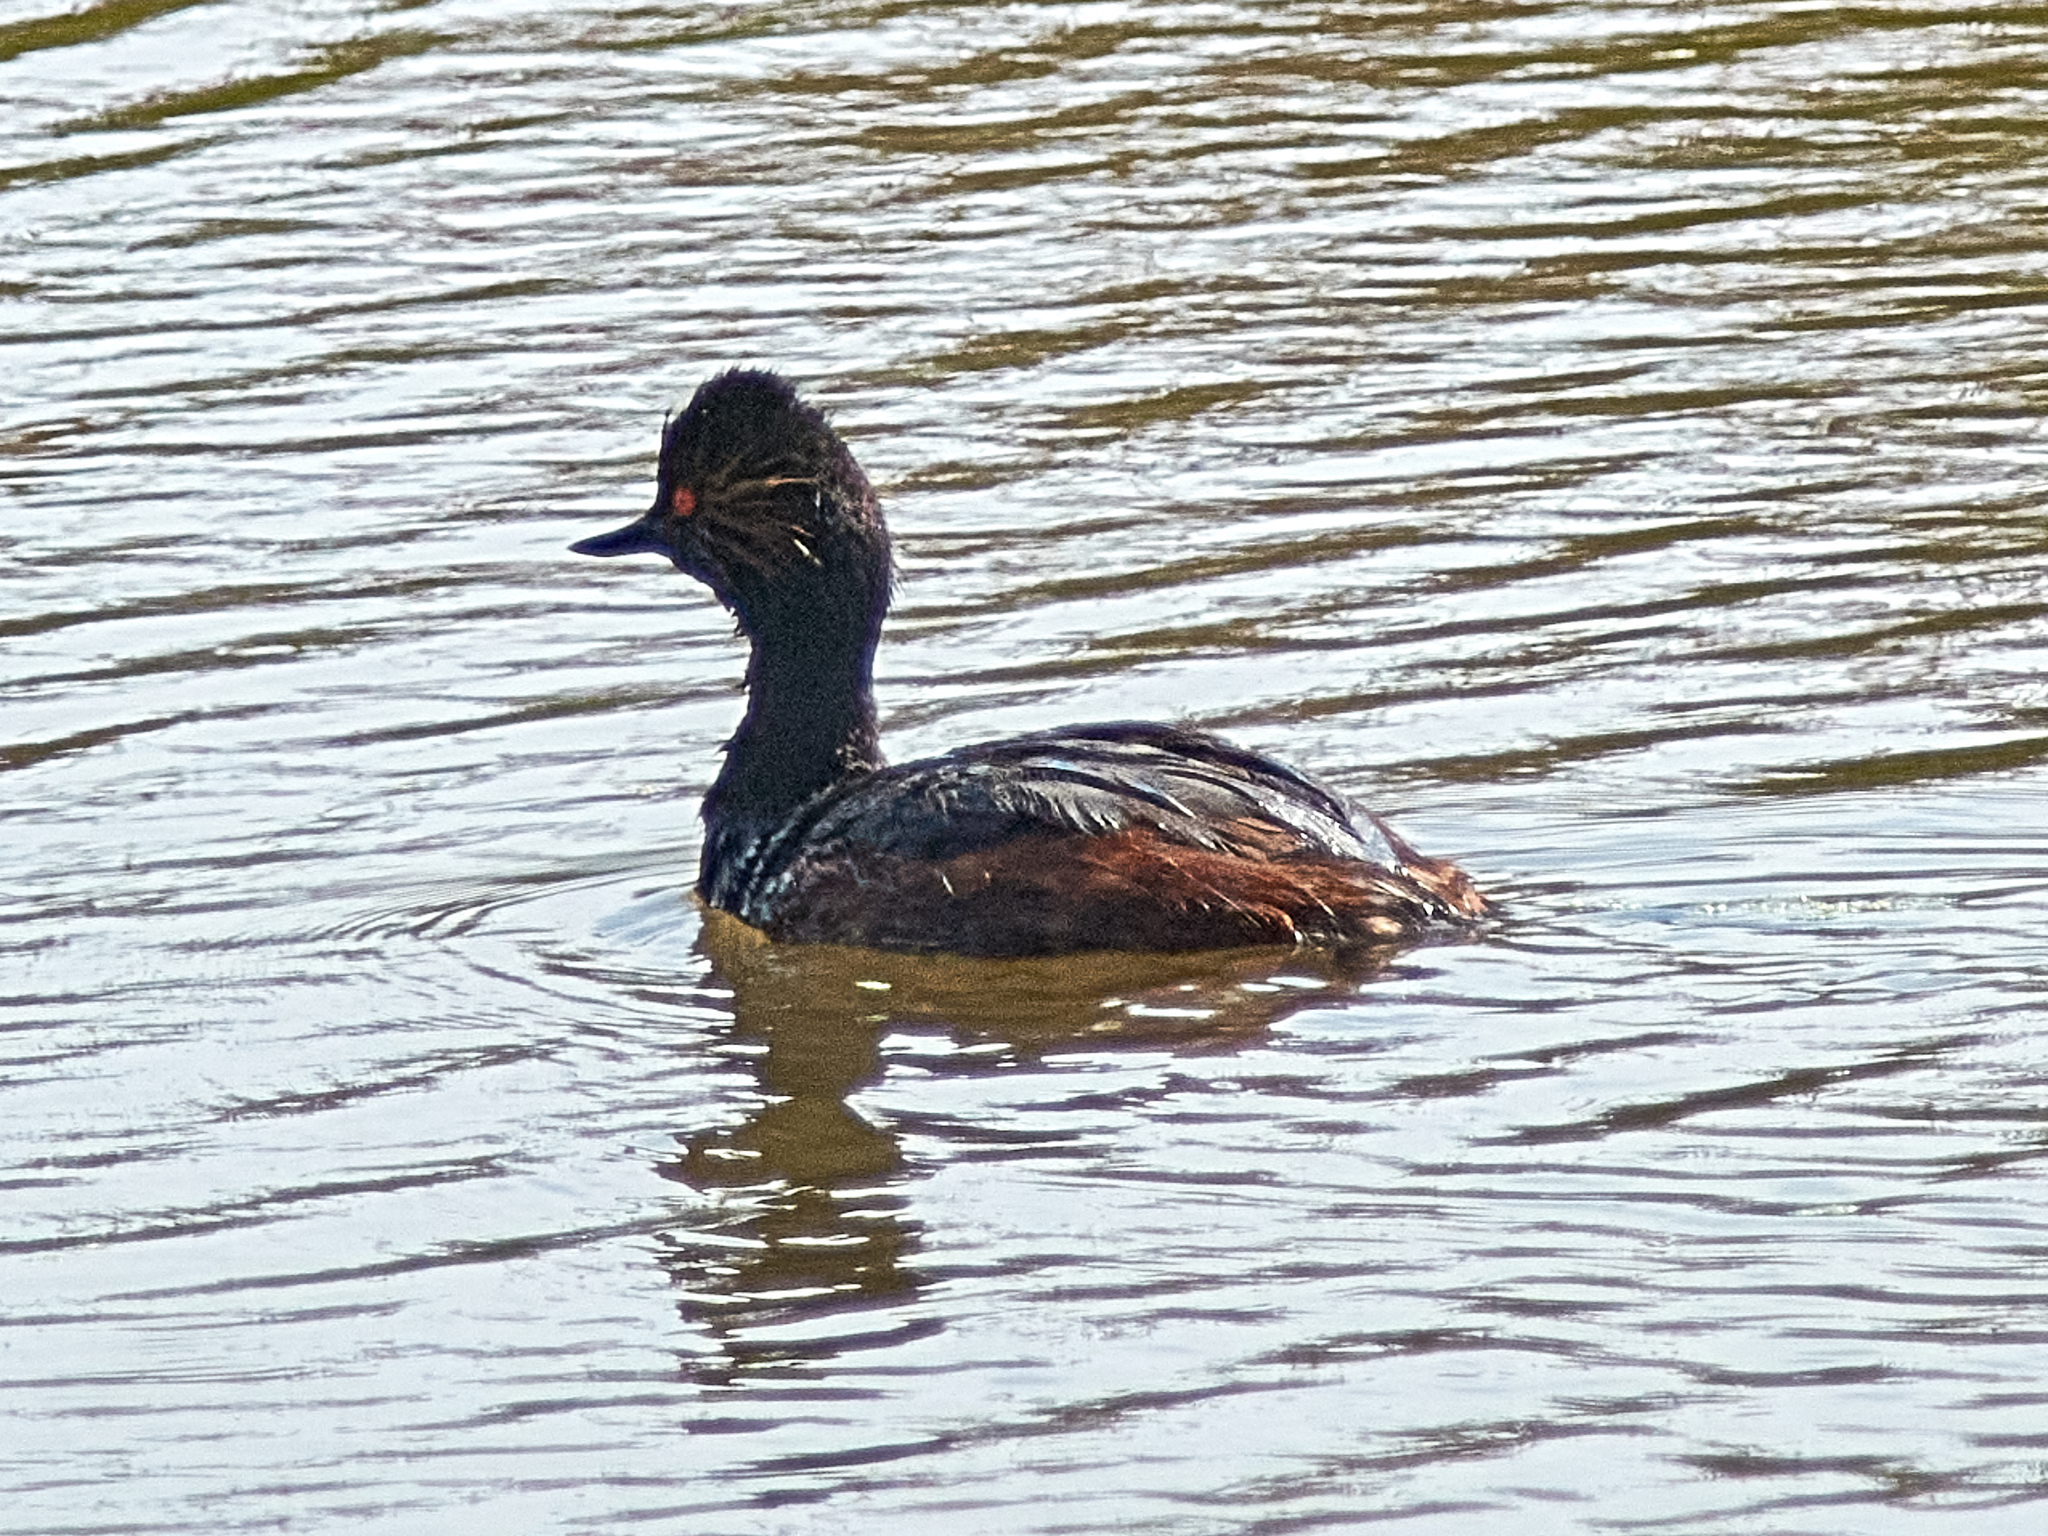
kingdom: Animalia
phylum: Chordata
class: Aves
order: Podicipediformes
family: Podicipedidae
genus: Podiceps
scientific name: Podiceps nigricollis
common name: Black-necked grebe
